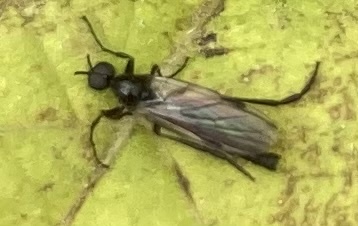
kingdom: Animalia
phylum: Arthropoda
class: Insecta
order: Diptera
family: Bibionidae
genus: Bibio
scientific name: Bibio slossonae
